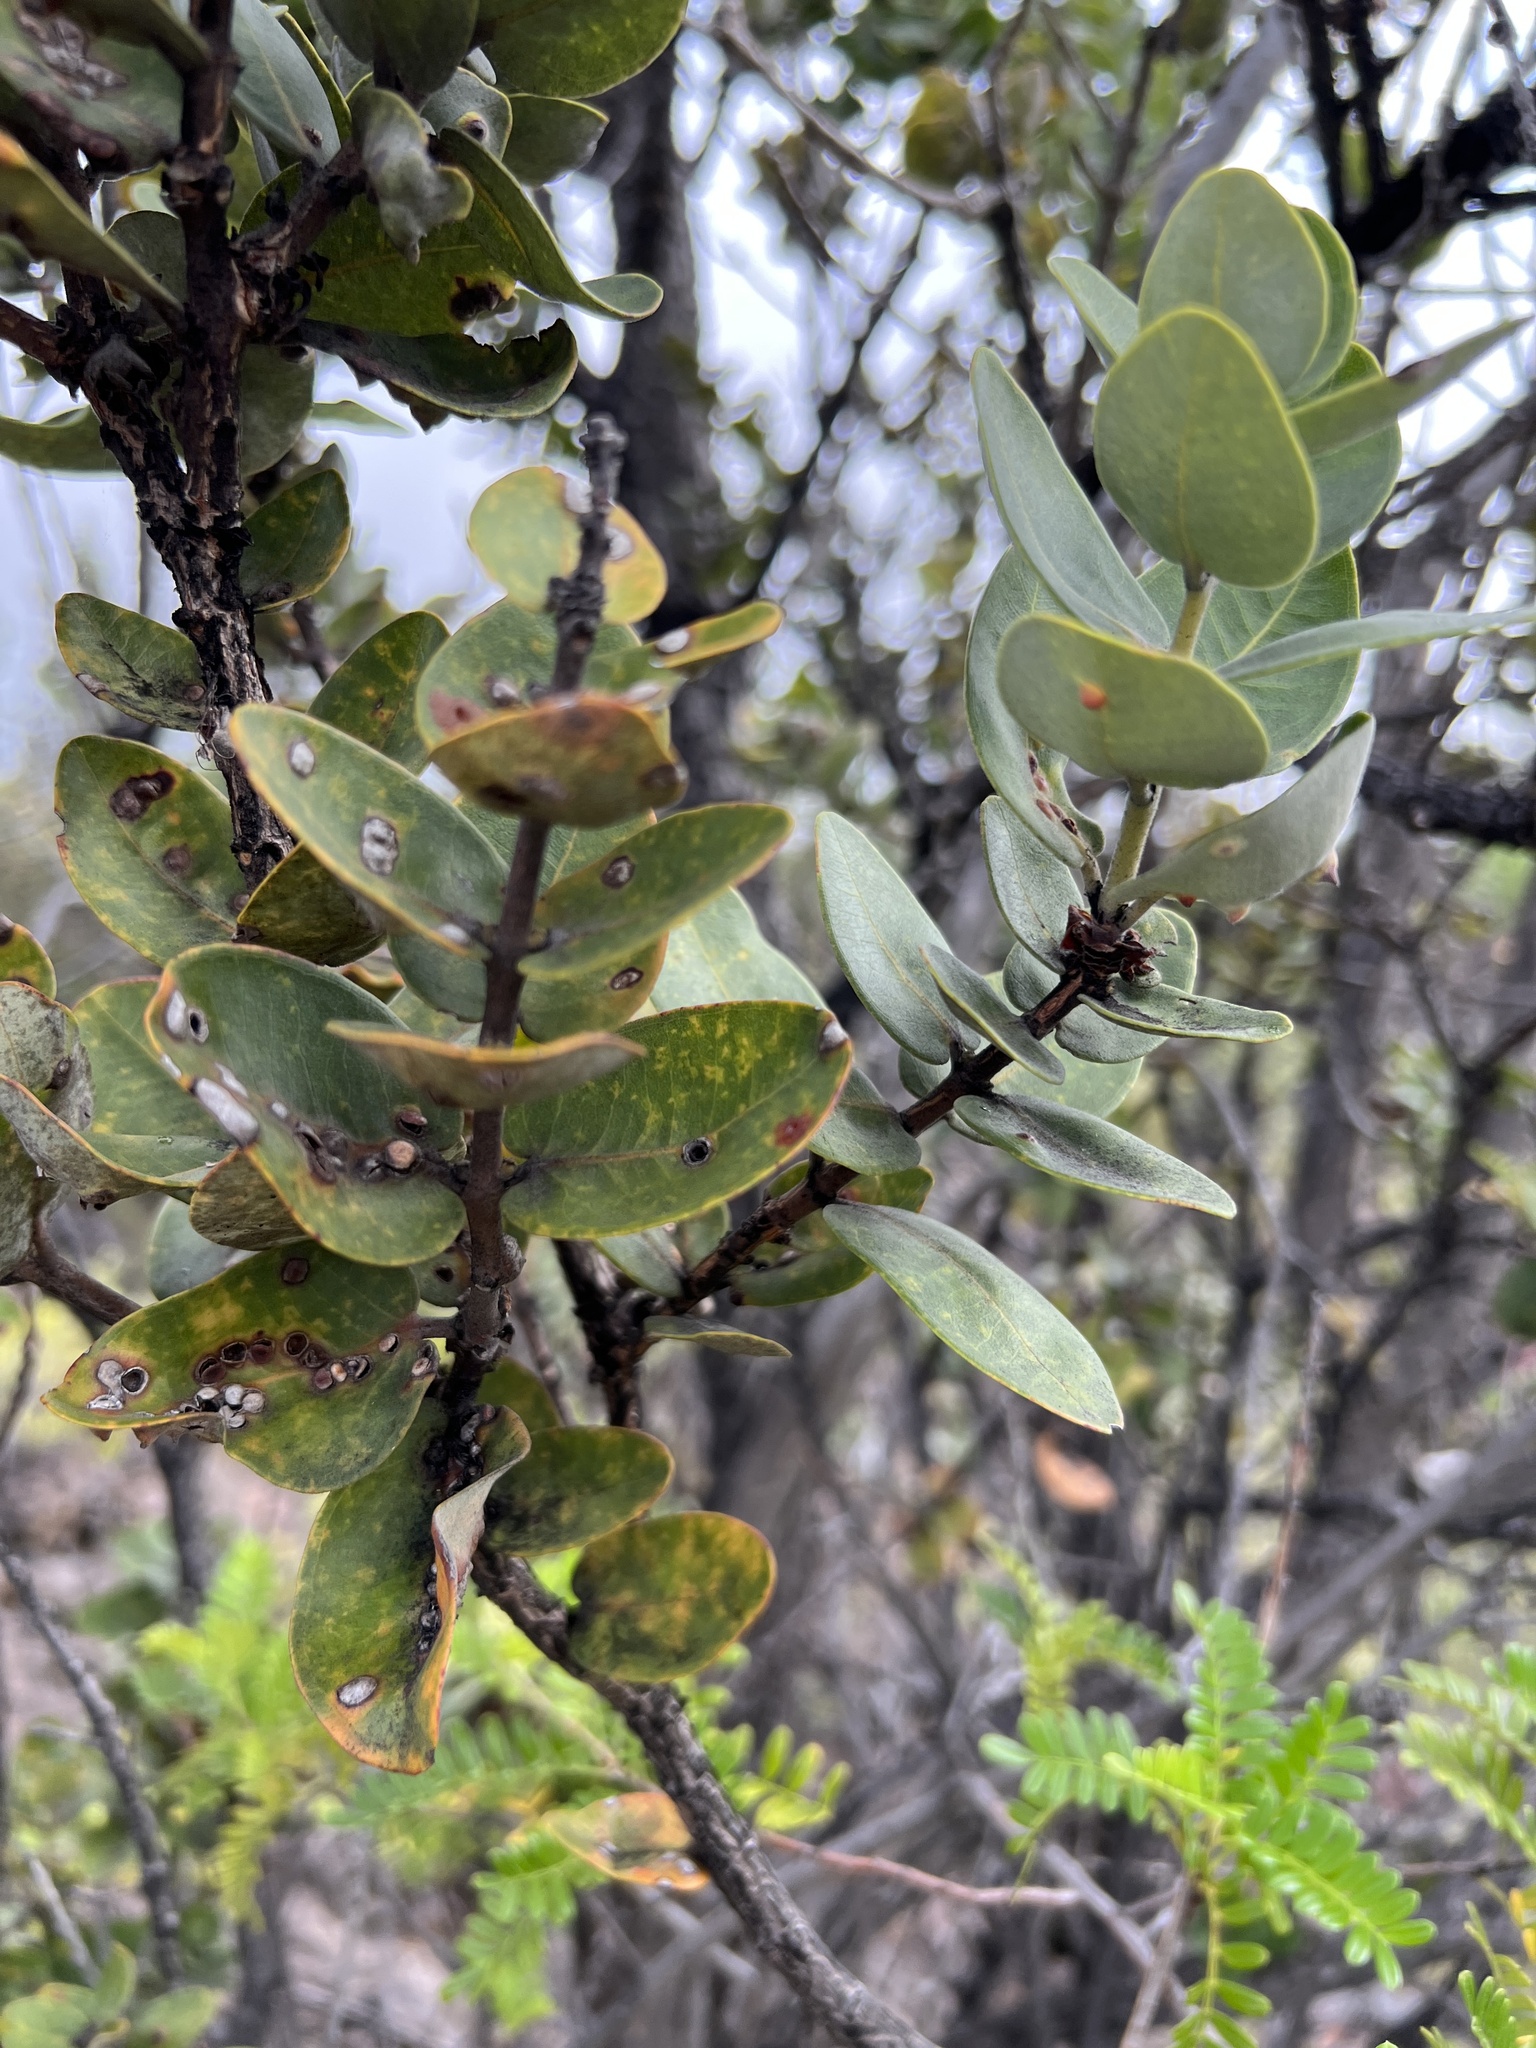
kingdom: Plantae
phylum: Tracheophyta
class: Magnoliopsida
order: Myrtales
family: Myrtaceae
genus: Metrosideros
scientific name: Metrosideros polymorpha
